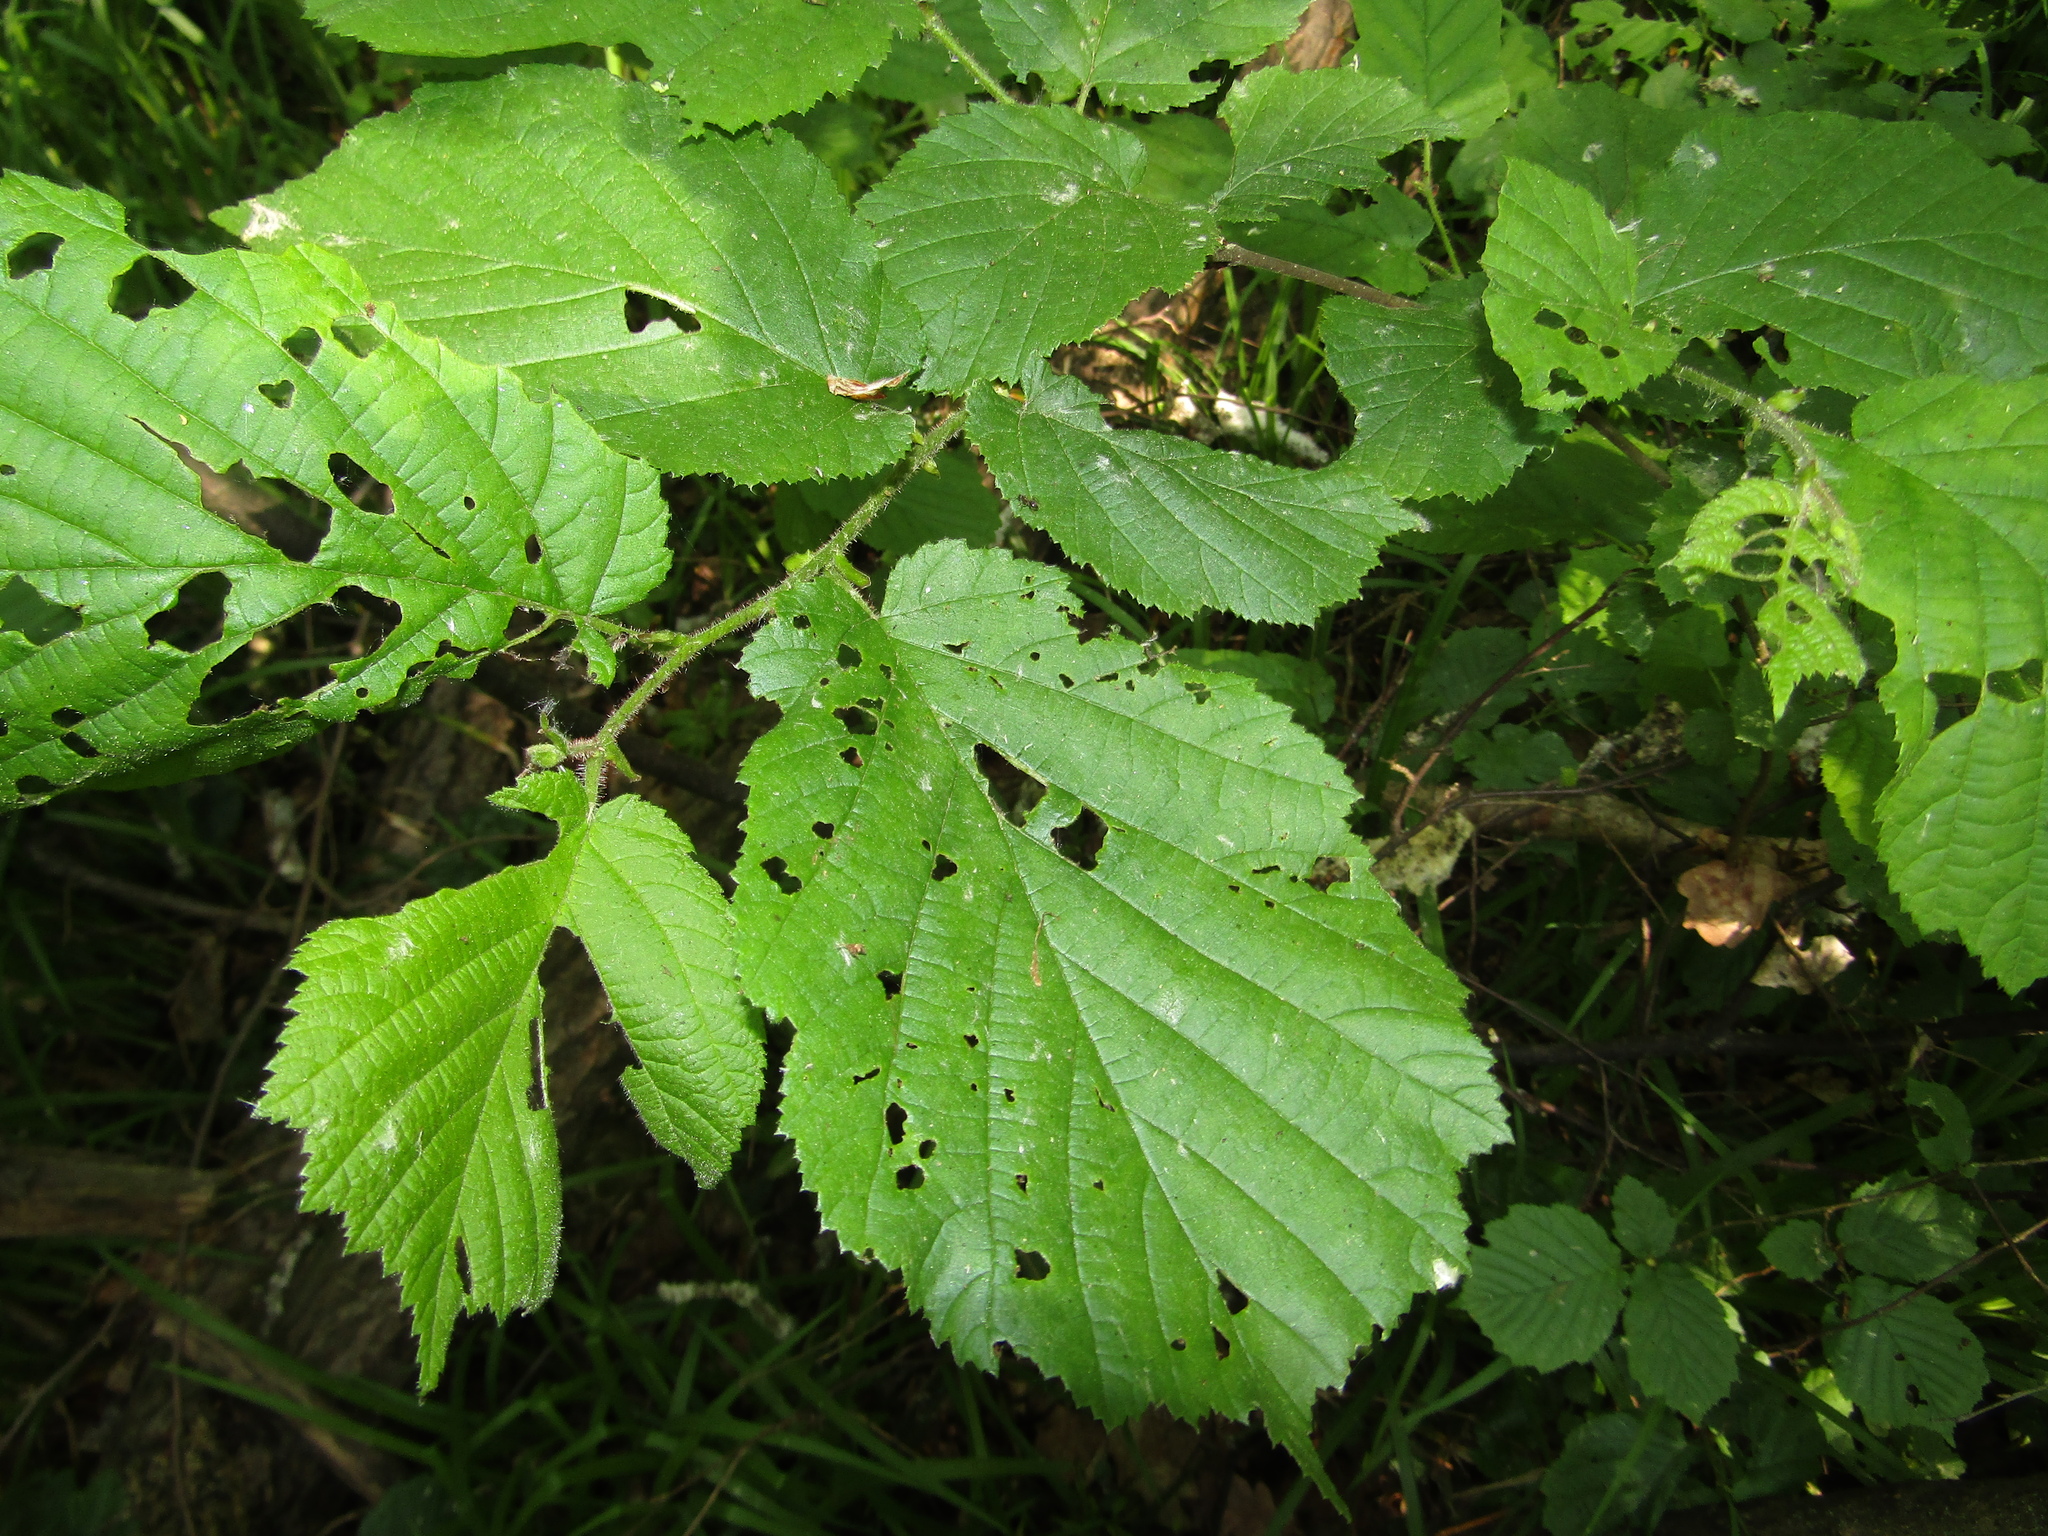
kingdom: Plantae
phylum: Tracheophyta
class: Magnoliopsida
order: Fagales
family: Betulaceae
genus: Corylus
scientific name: Corylus avellana
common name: European hazel
